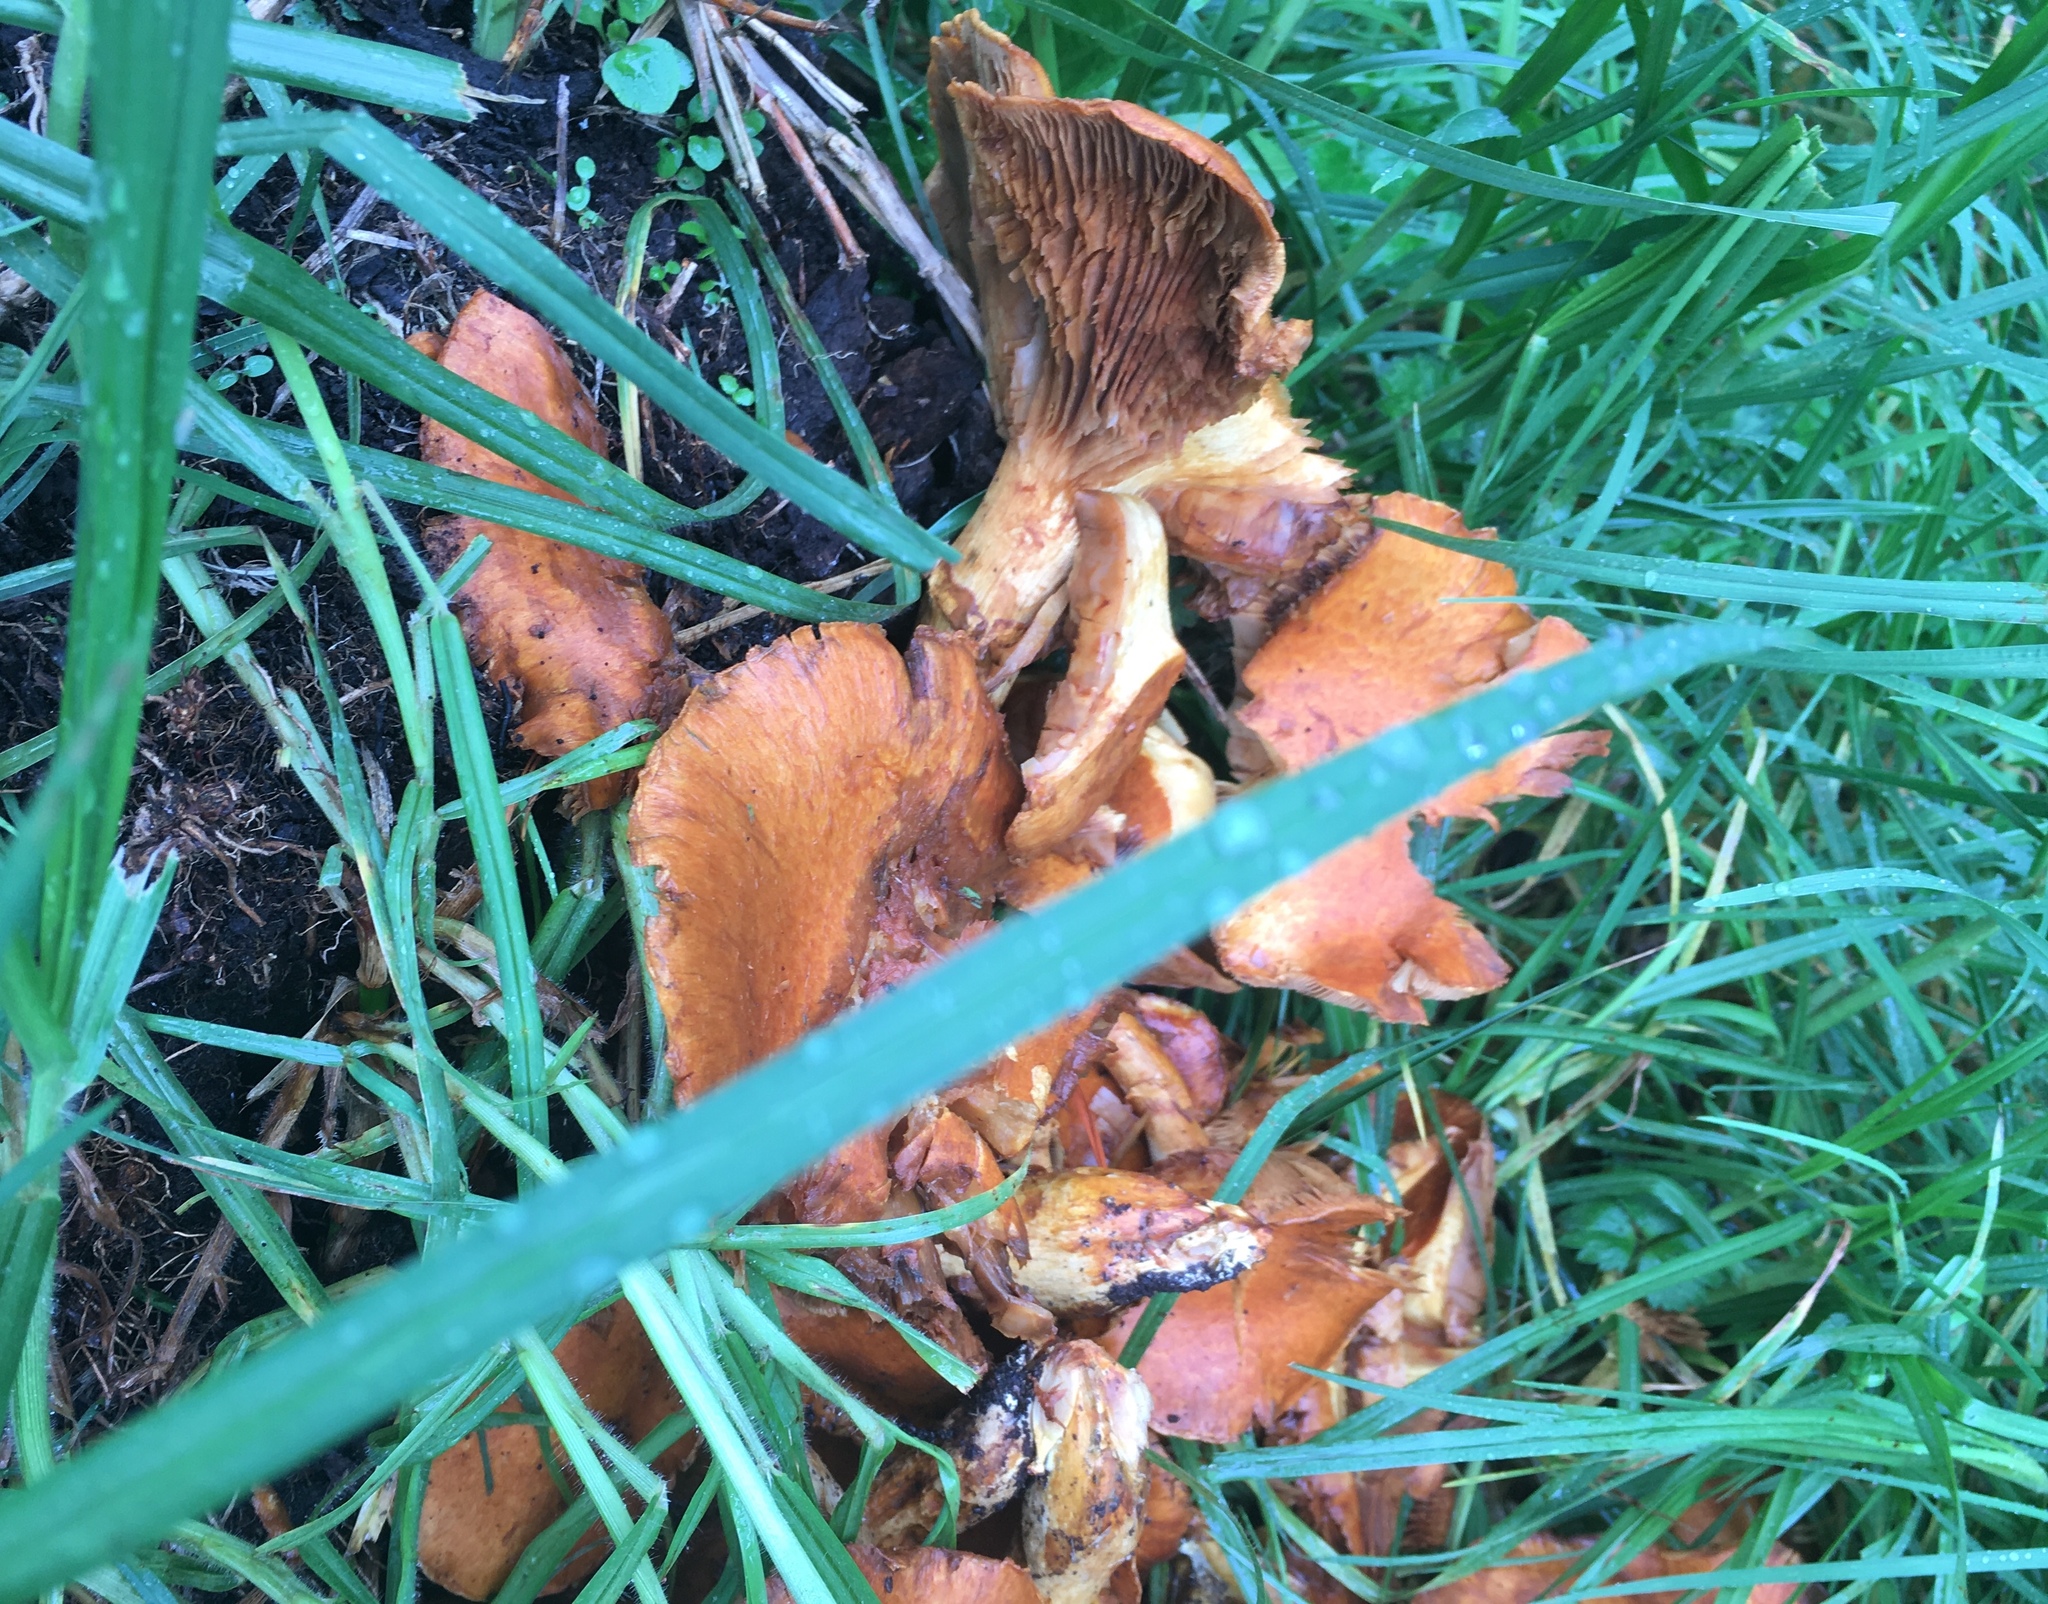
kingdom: Fungi
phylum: Basidiomycota
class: Agaricomycetes
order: Agaricales
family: Hymenogastraceae
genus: Gymnopilus
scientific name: Gymnopilus junonius
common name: Spectacular rustgill
